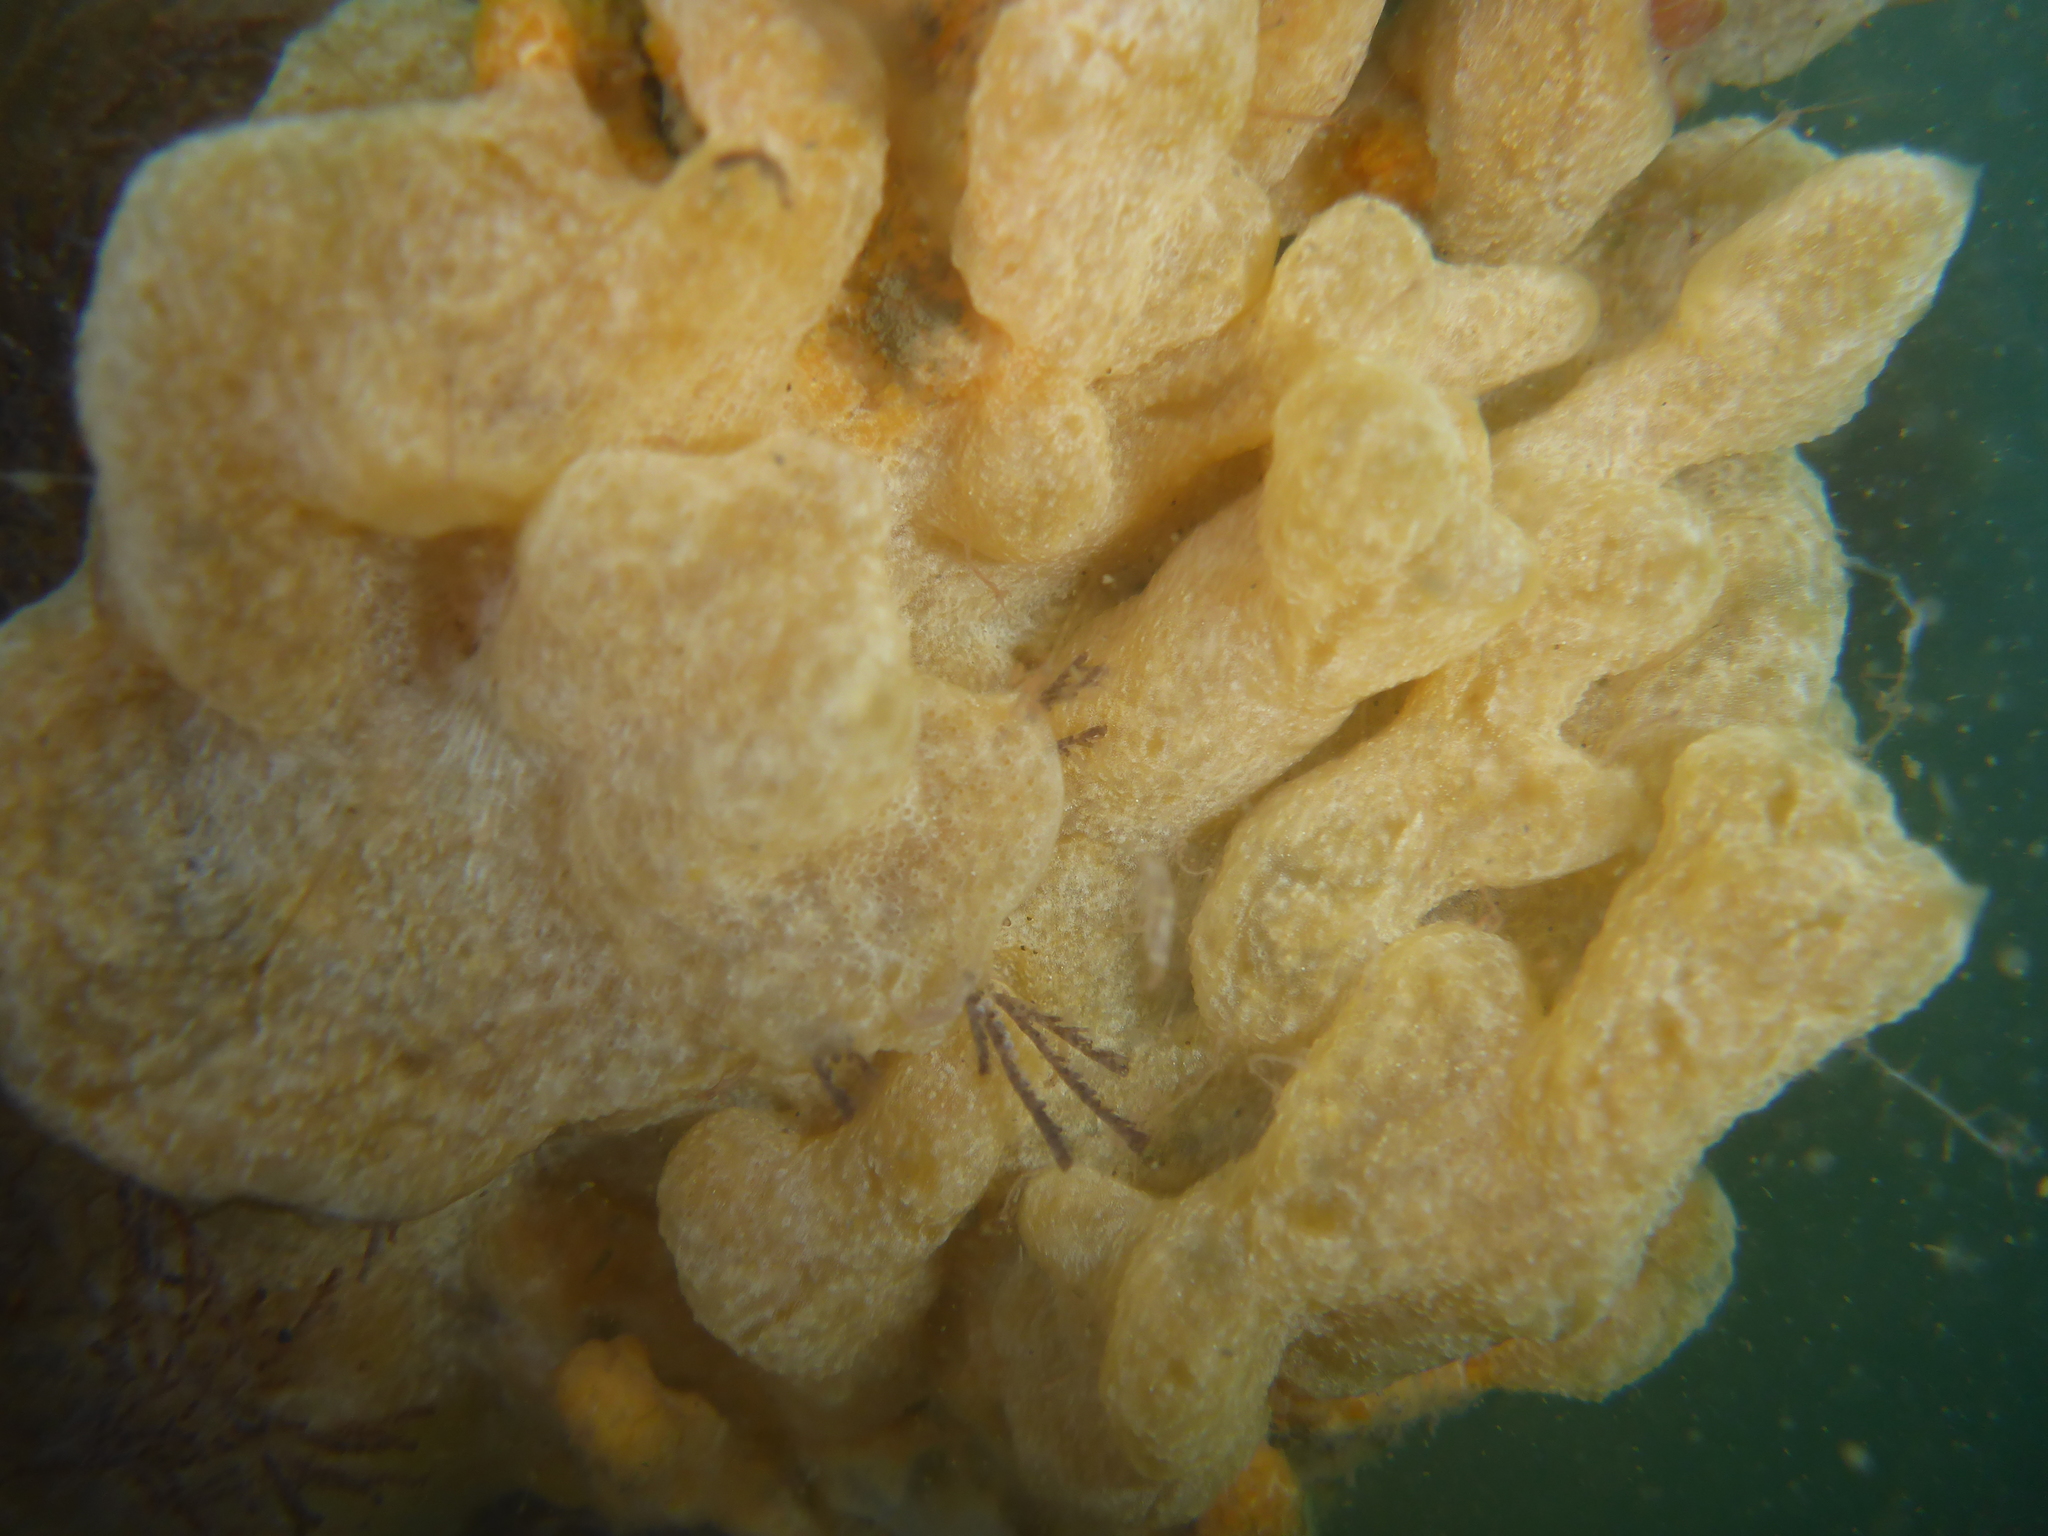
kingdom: Animalia
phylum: Chordata
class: Ascidiacea
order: Aplousobranchia
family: Didemnidae
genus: Didemnum
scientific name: Didemnum vexillum
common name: Compound sea squirt
